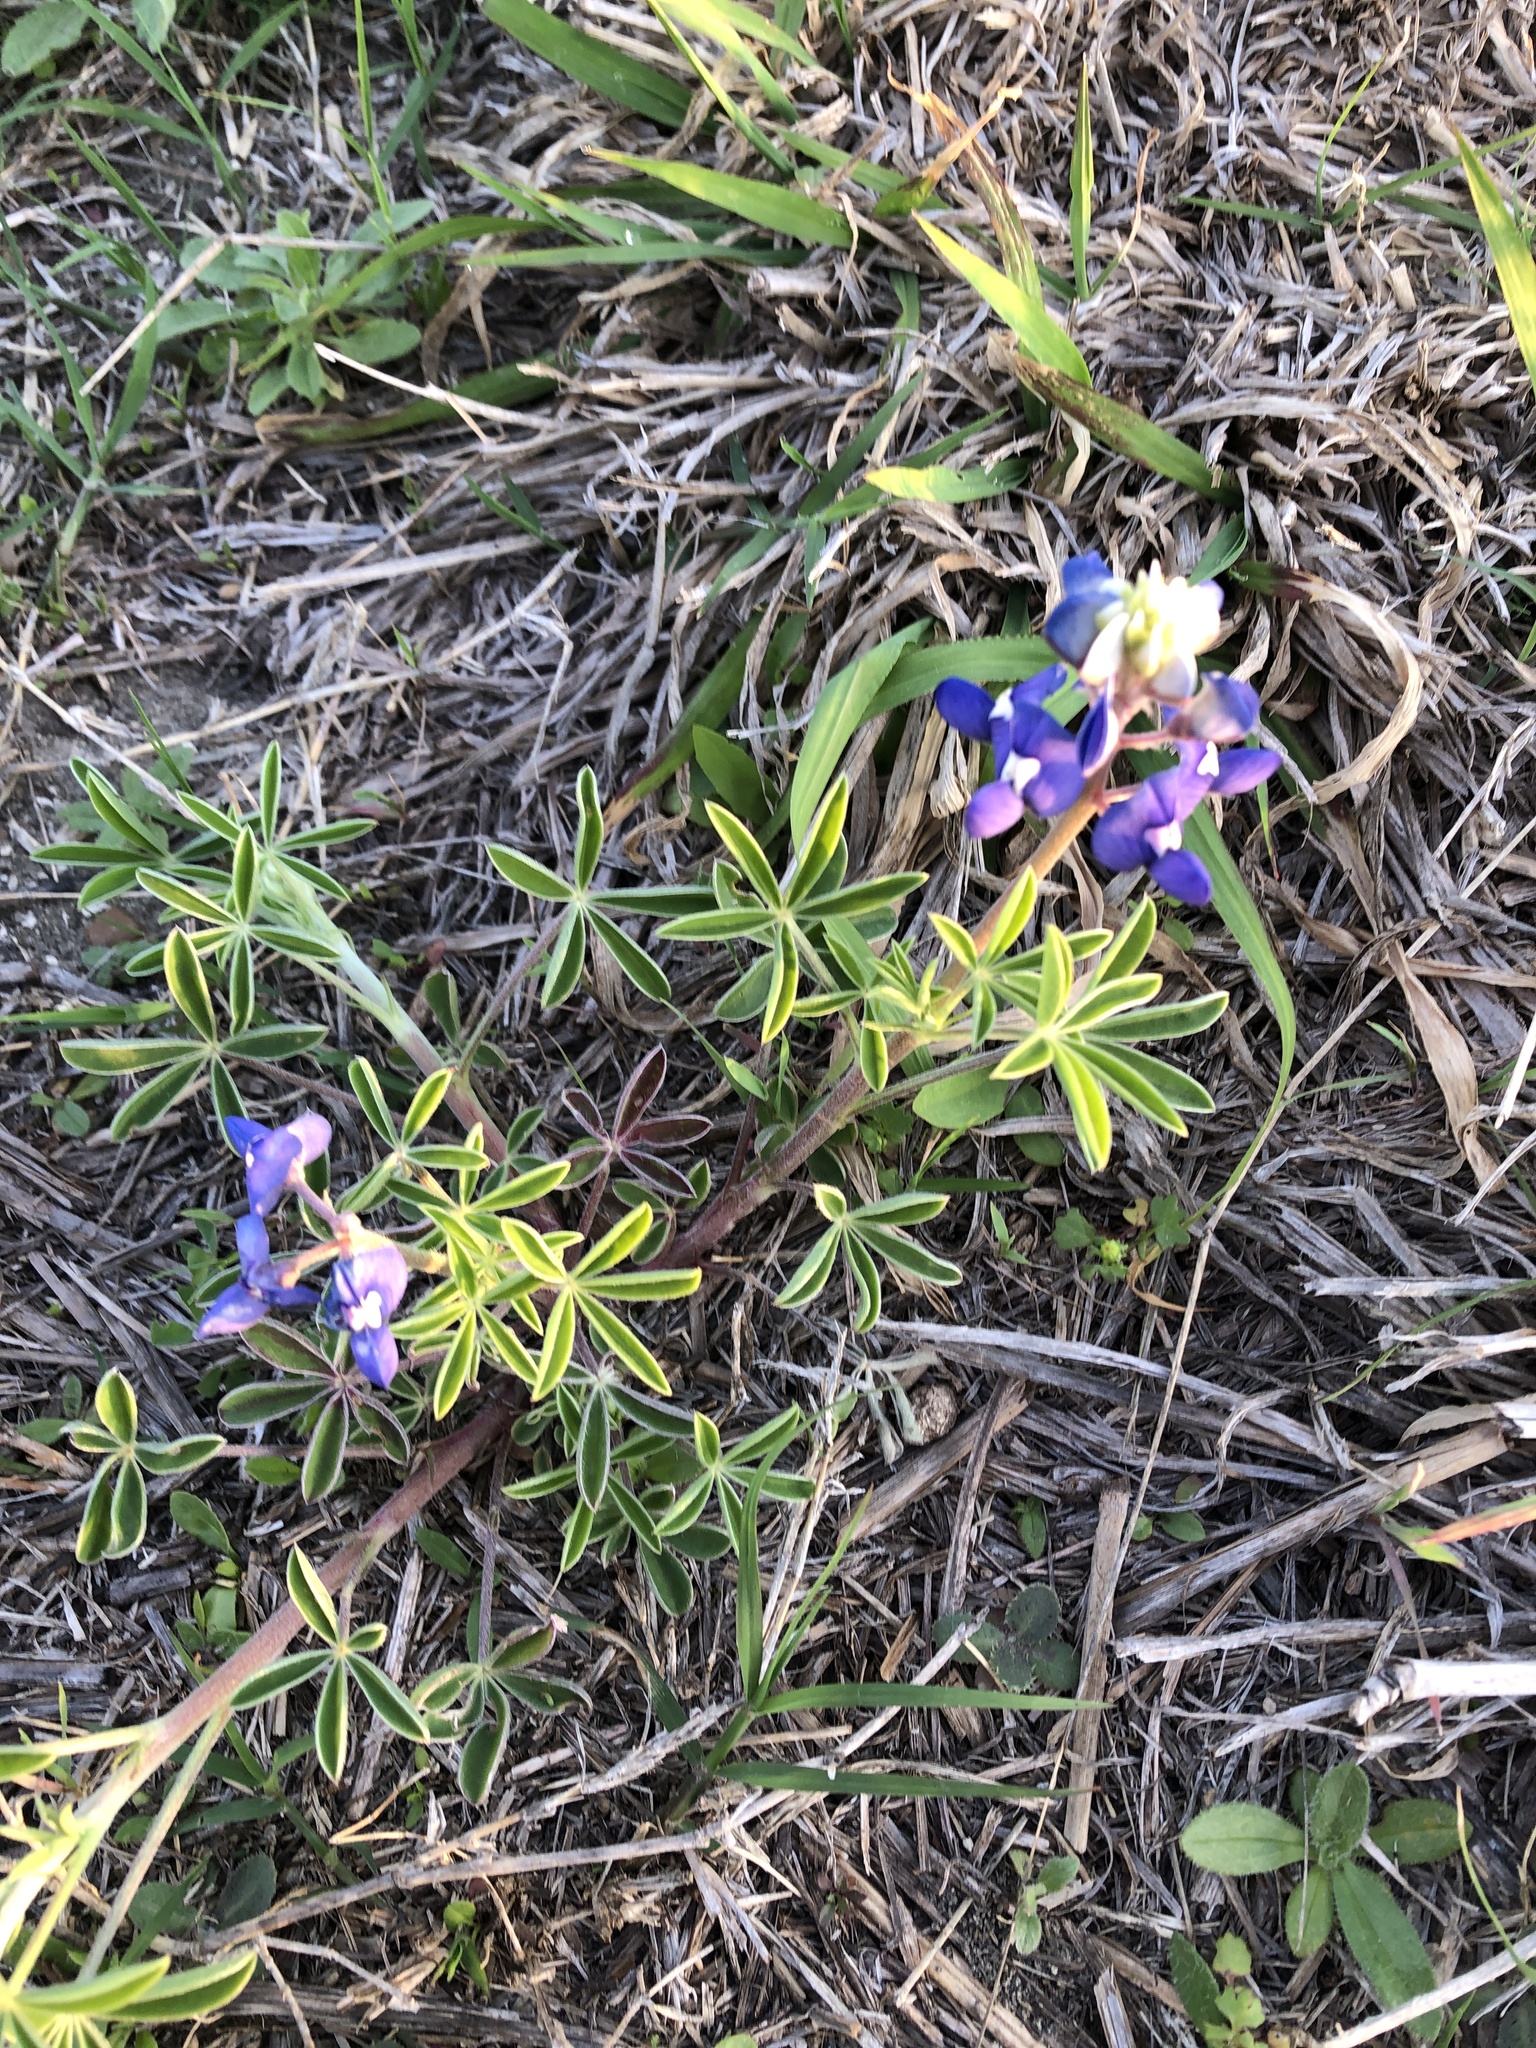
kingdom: Plantae
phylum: Tracheophyta
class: Magnoliopsida
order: Fabales
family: Fabaceae
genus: Lupinus
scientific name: Lupinus texensis
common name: Texas bluebonnet
